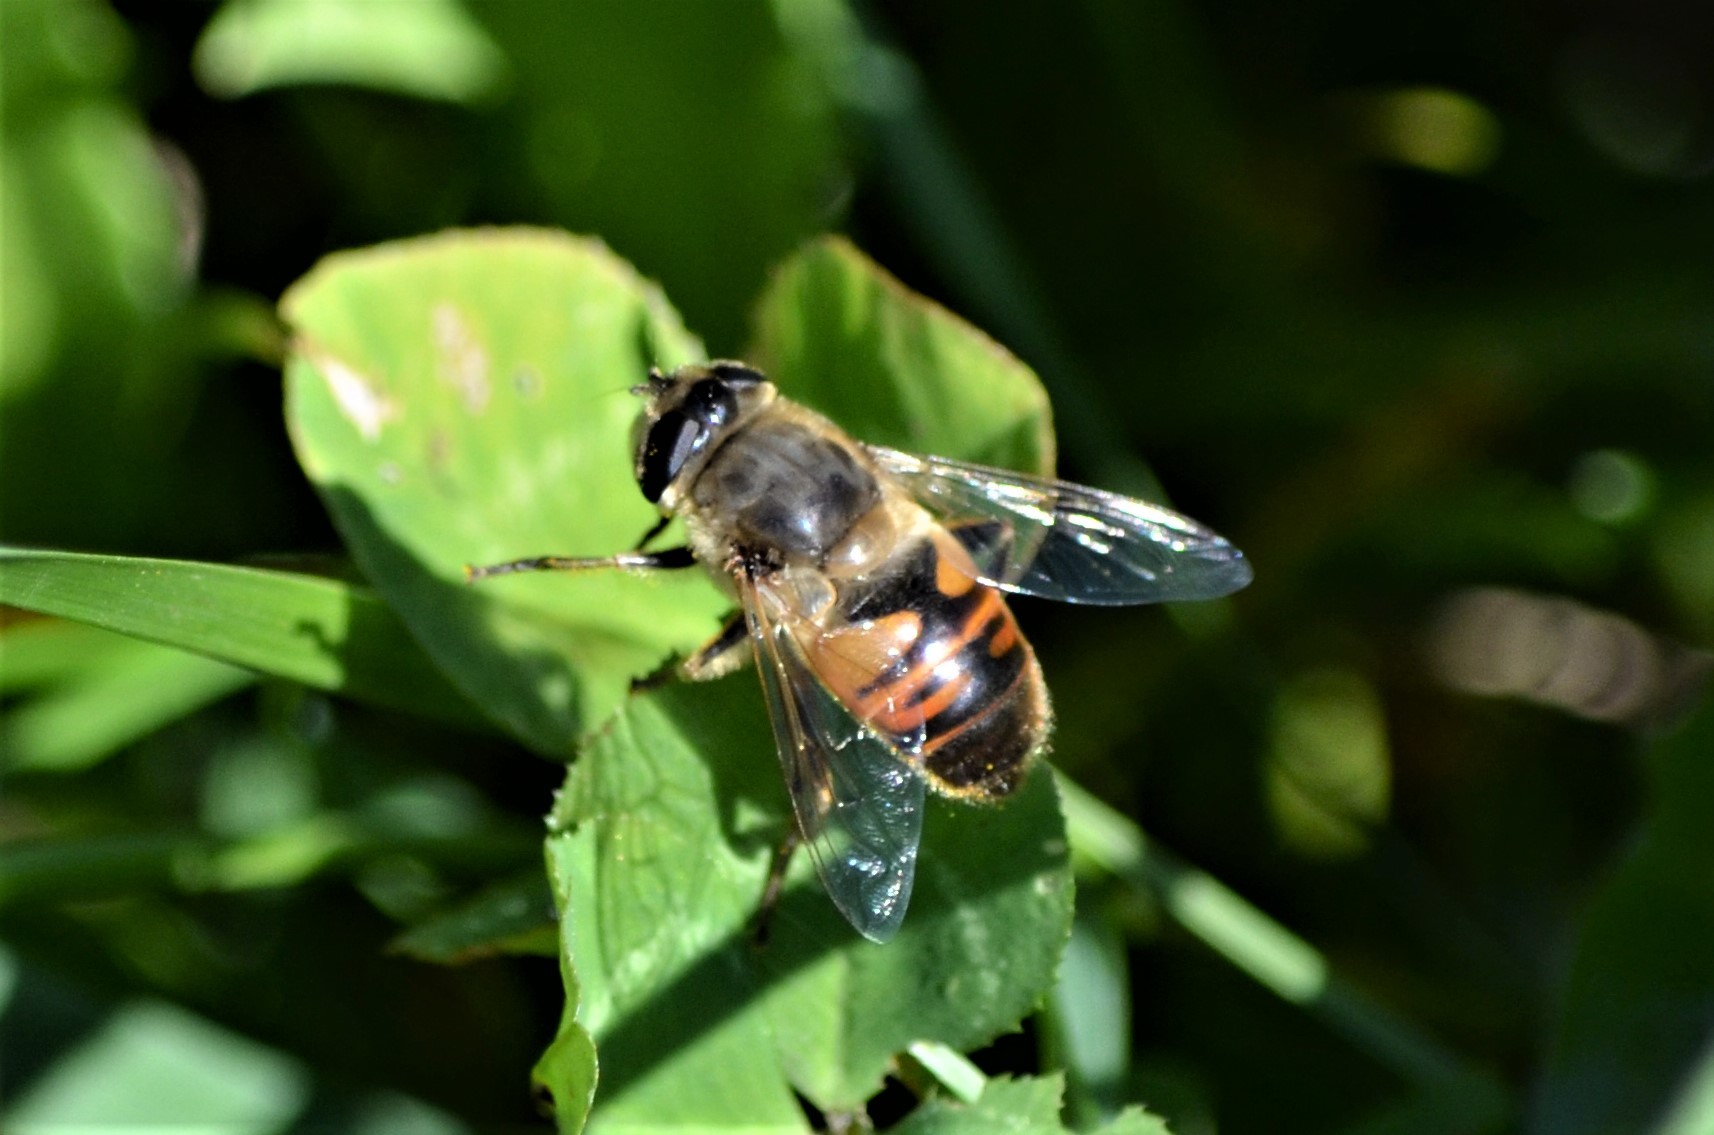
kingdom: Animalia
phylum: Arthropoda
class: Insecta
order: Diptera
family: Syrphidae
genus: Eristalis
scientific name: Eristalis tenax
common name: Drone fly
